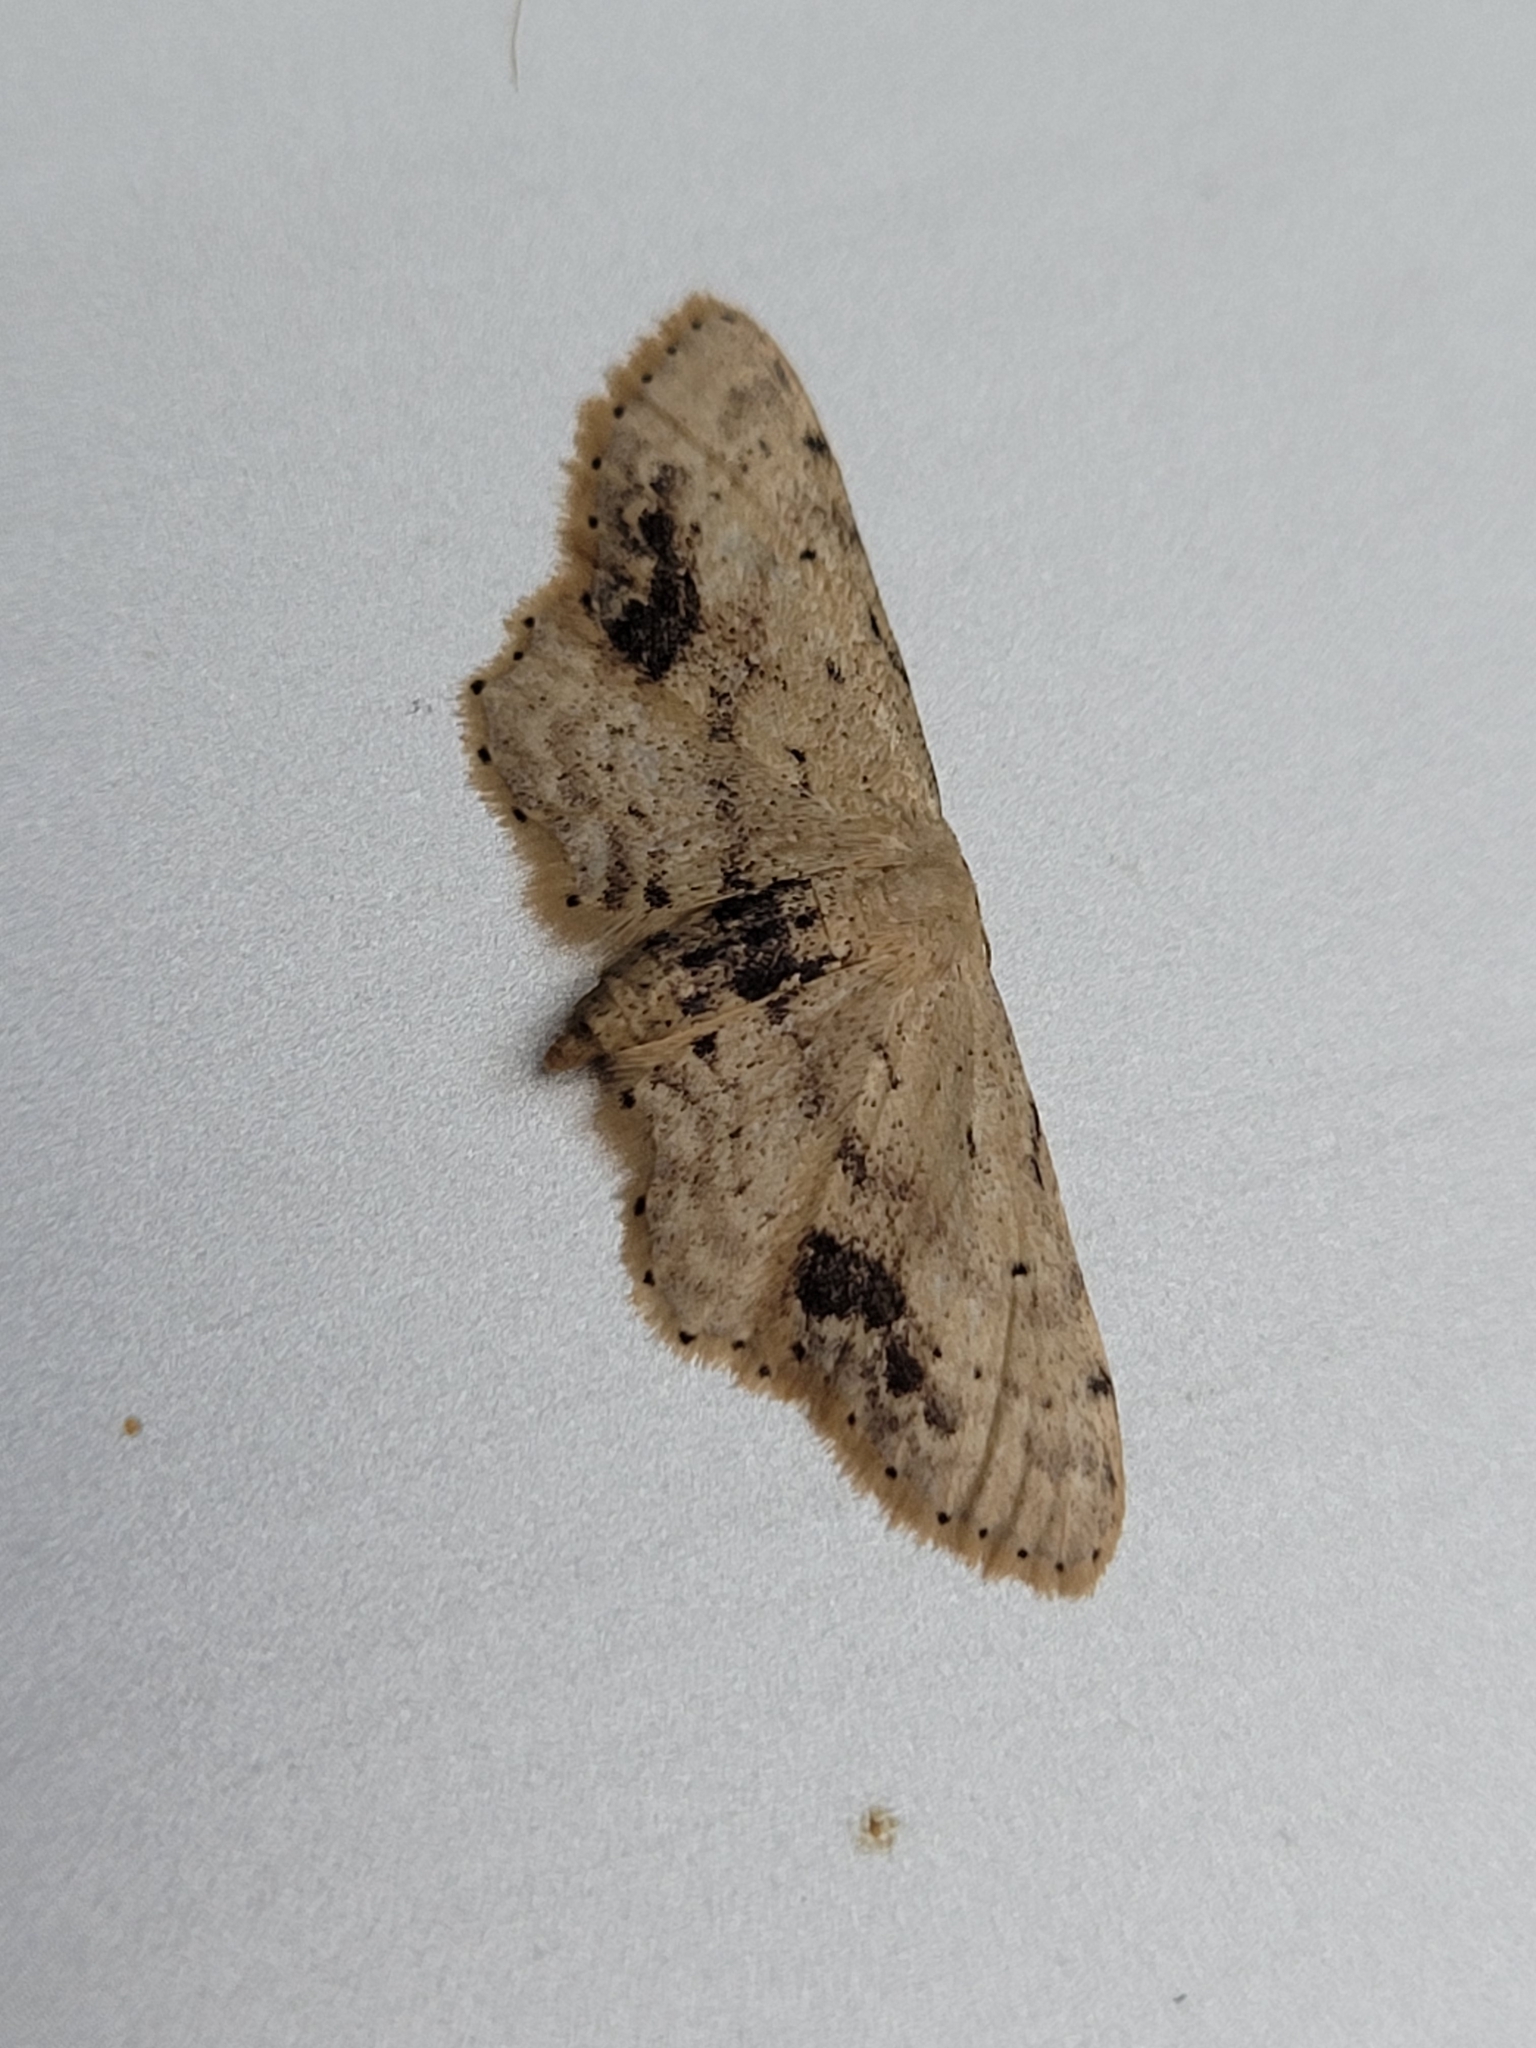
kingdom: Animalia
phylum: Arthropoda
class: Insecta
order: Lepidoptera
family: Geometridae
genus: Idaea
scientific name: Idaea dimidiata
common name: Single-dotted wave
